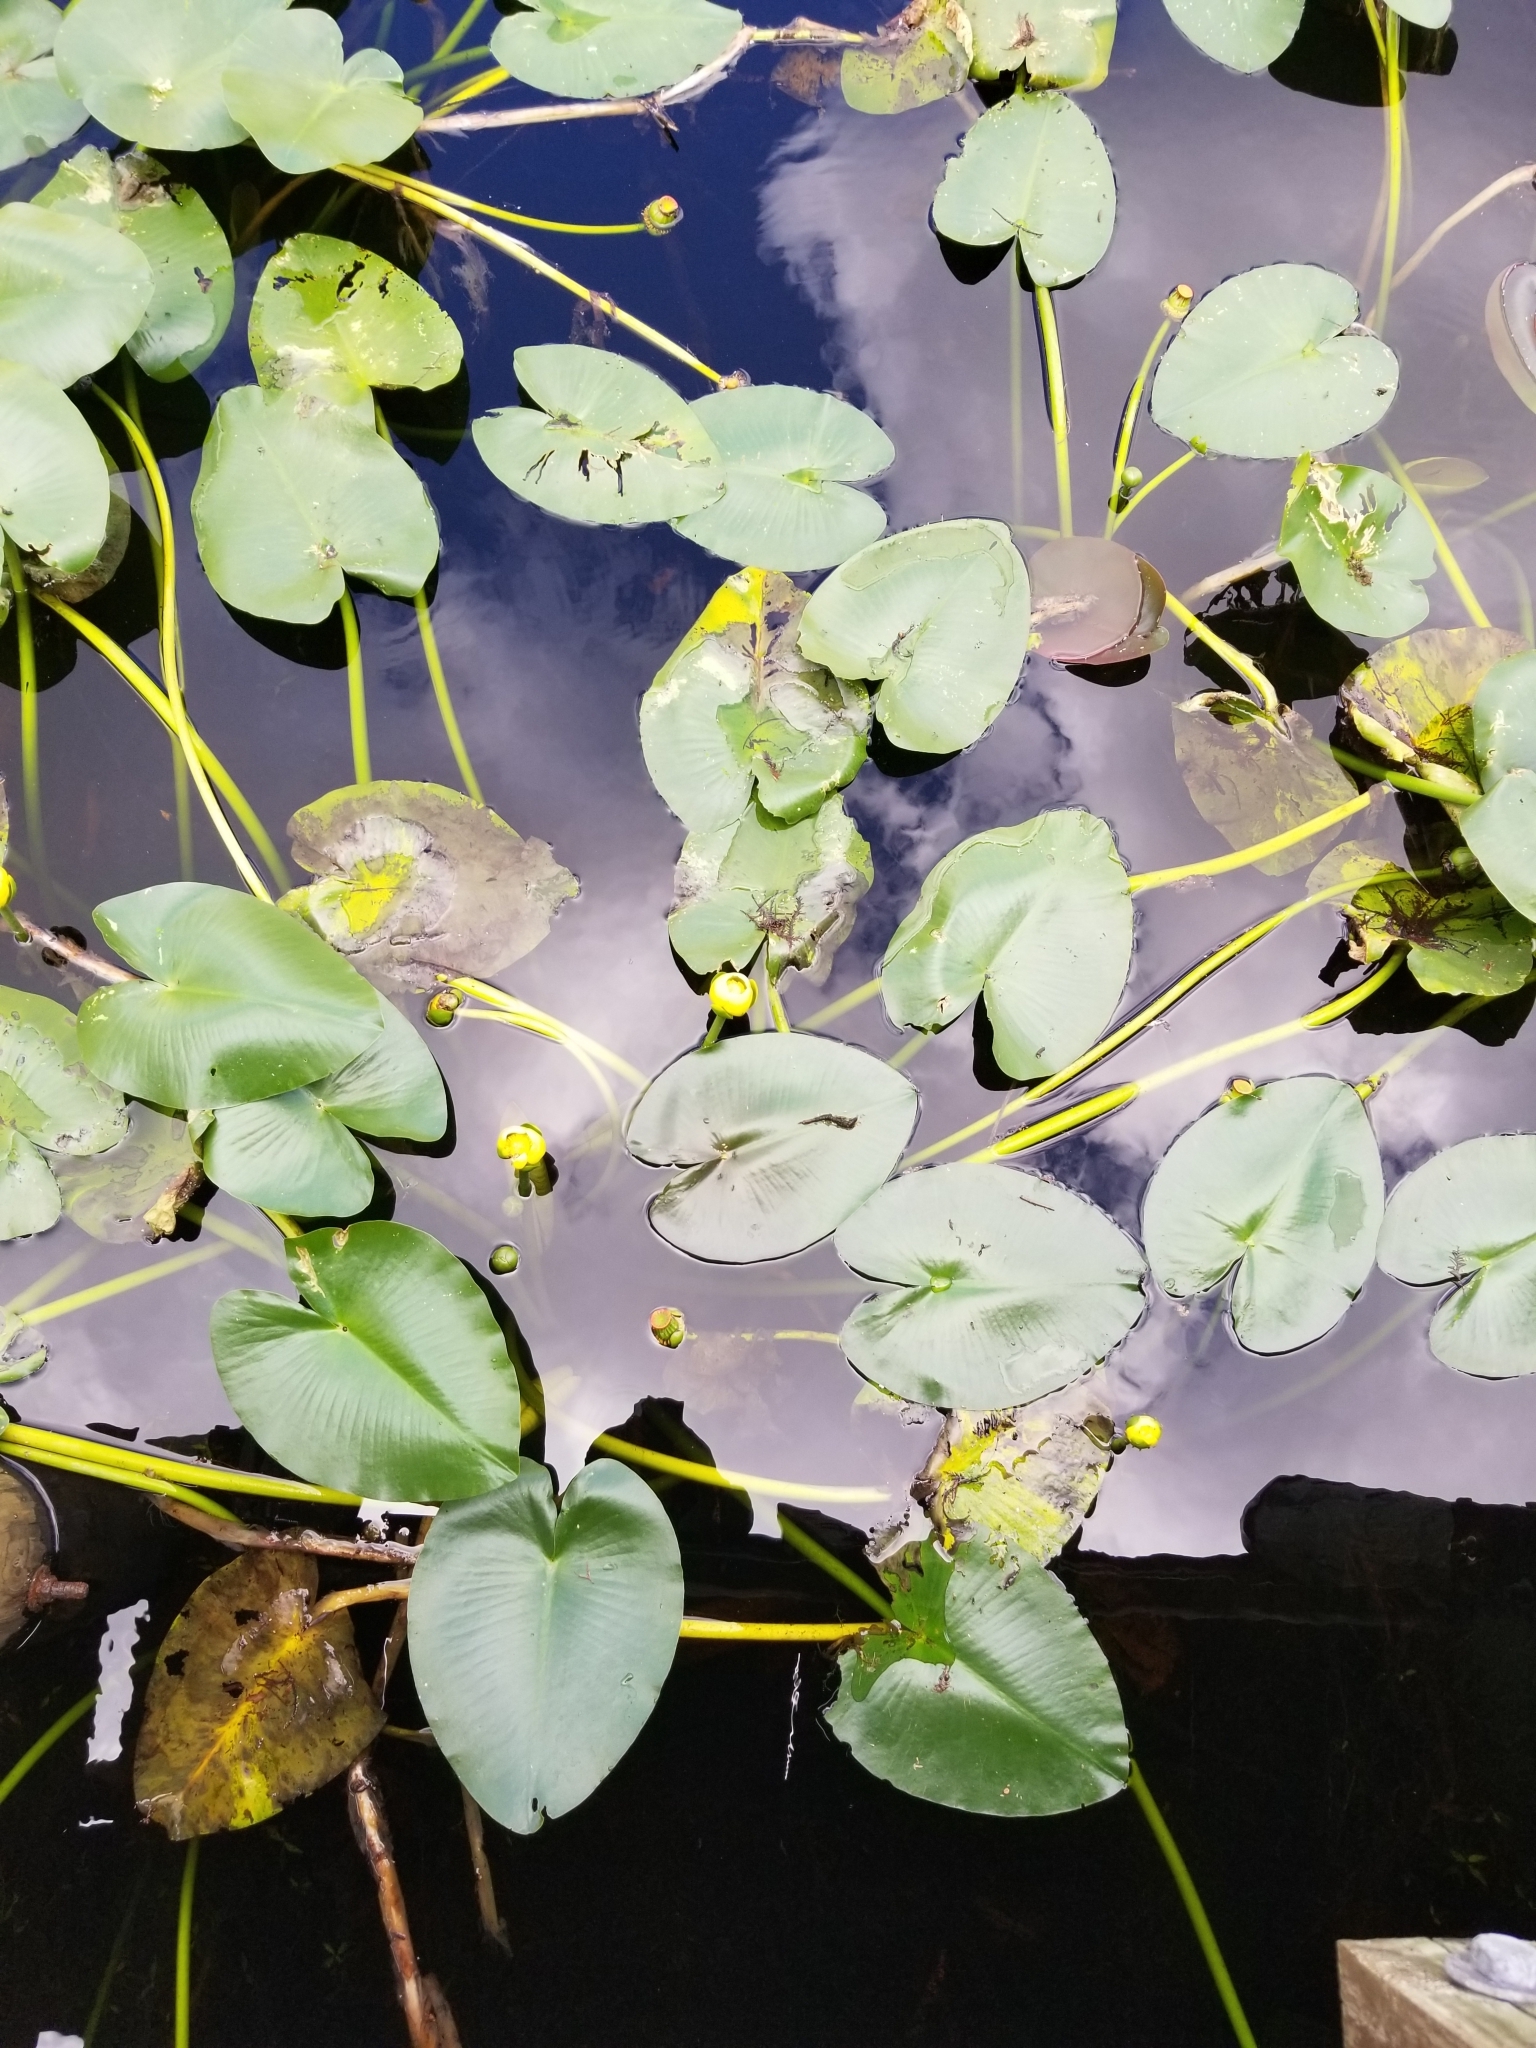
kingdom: Plantae
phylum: Tracheophyta
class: Magnoliopsida
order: Nymphaeales
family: Nymphaeaceae
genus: Nuphar
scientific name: Nuphar advena
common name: Spatter-dock
